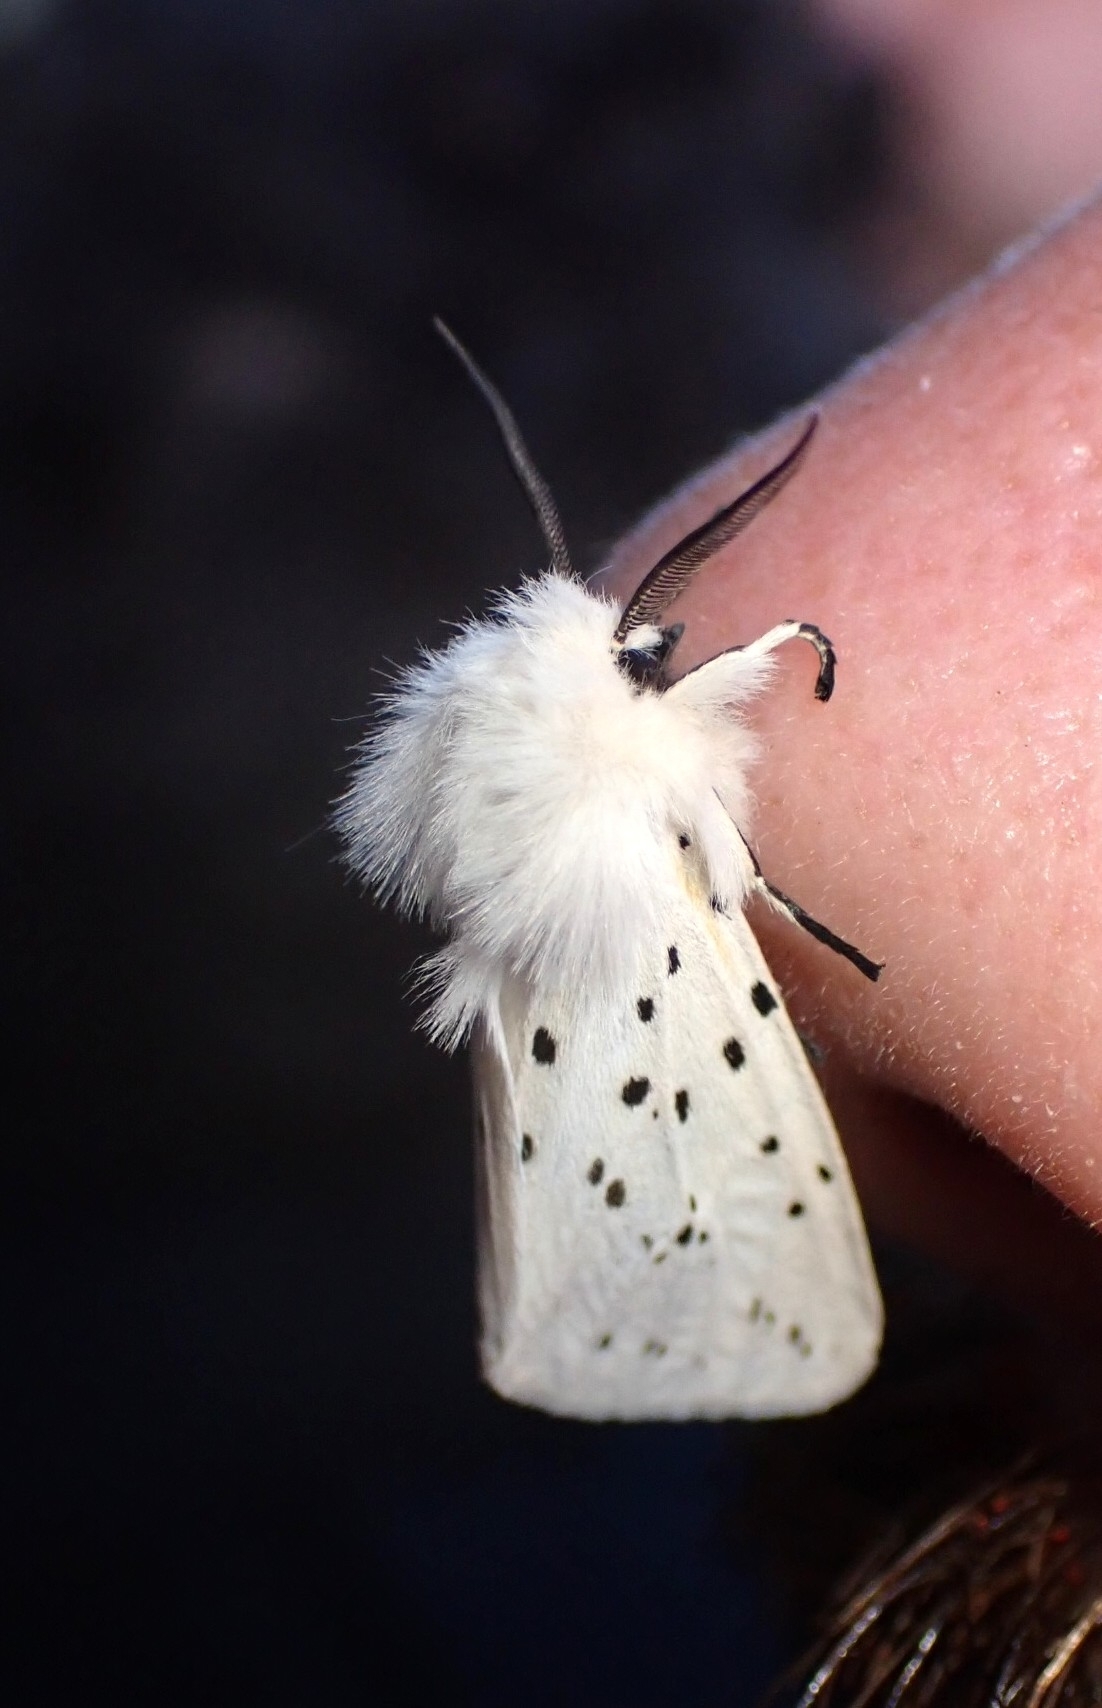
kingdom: Animalia
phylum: Arthropoda
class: Insecta
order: Lepidoptera
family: Erebidae
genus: Spilosoma
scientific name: Spilosoma lubricipeda
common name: White ermine
